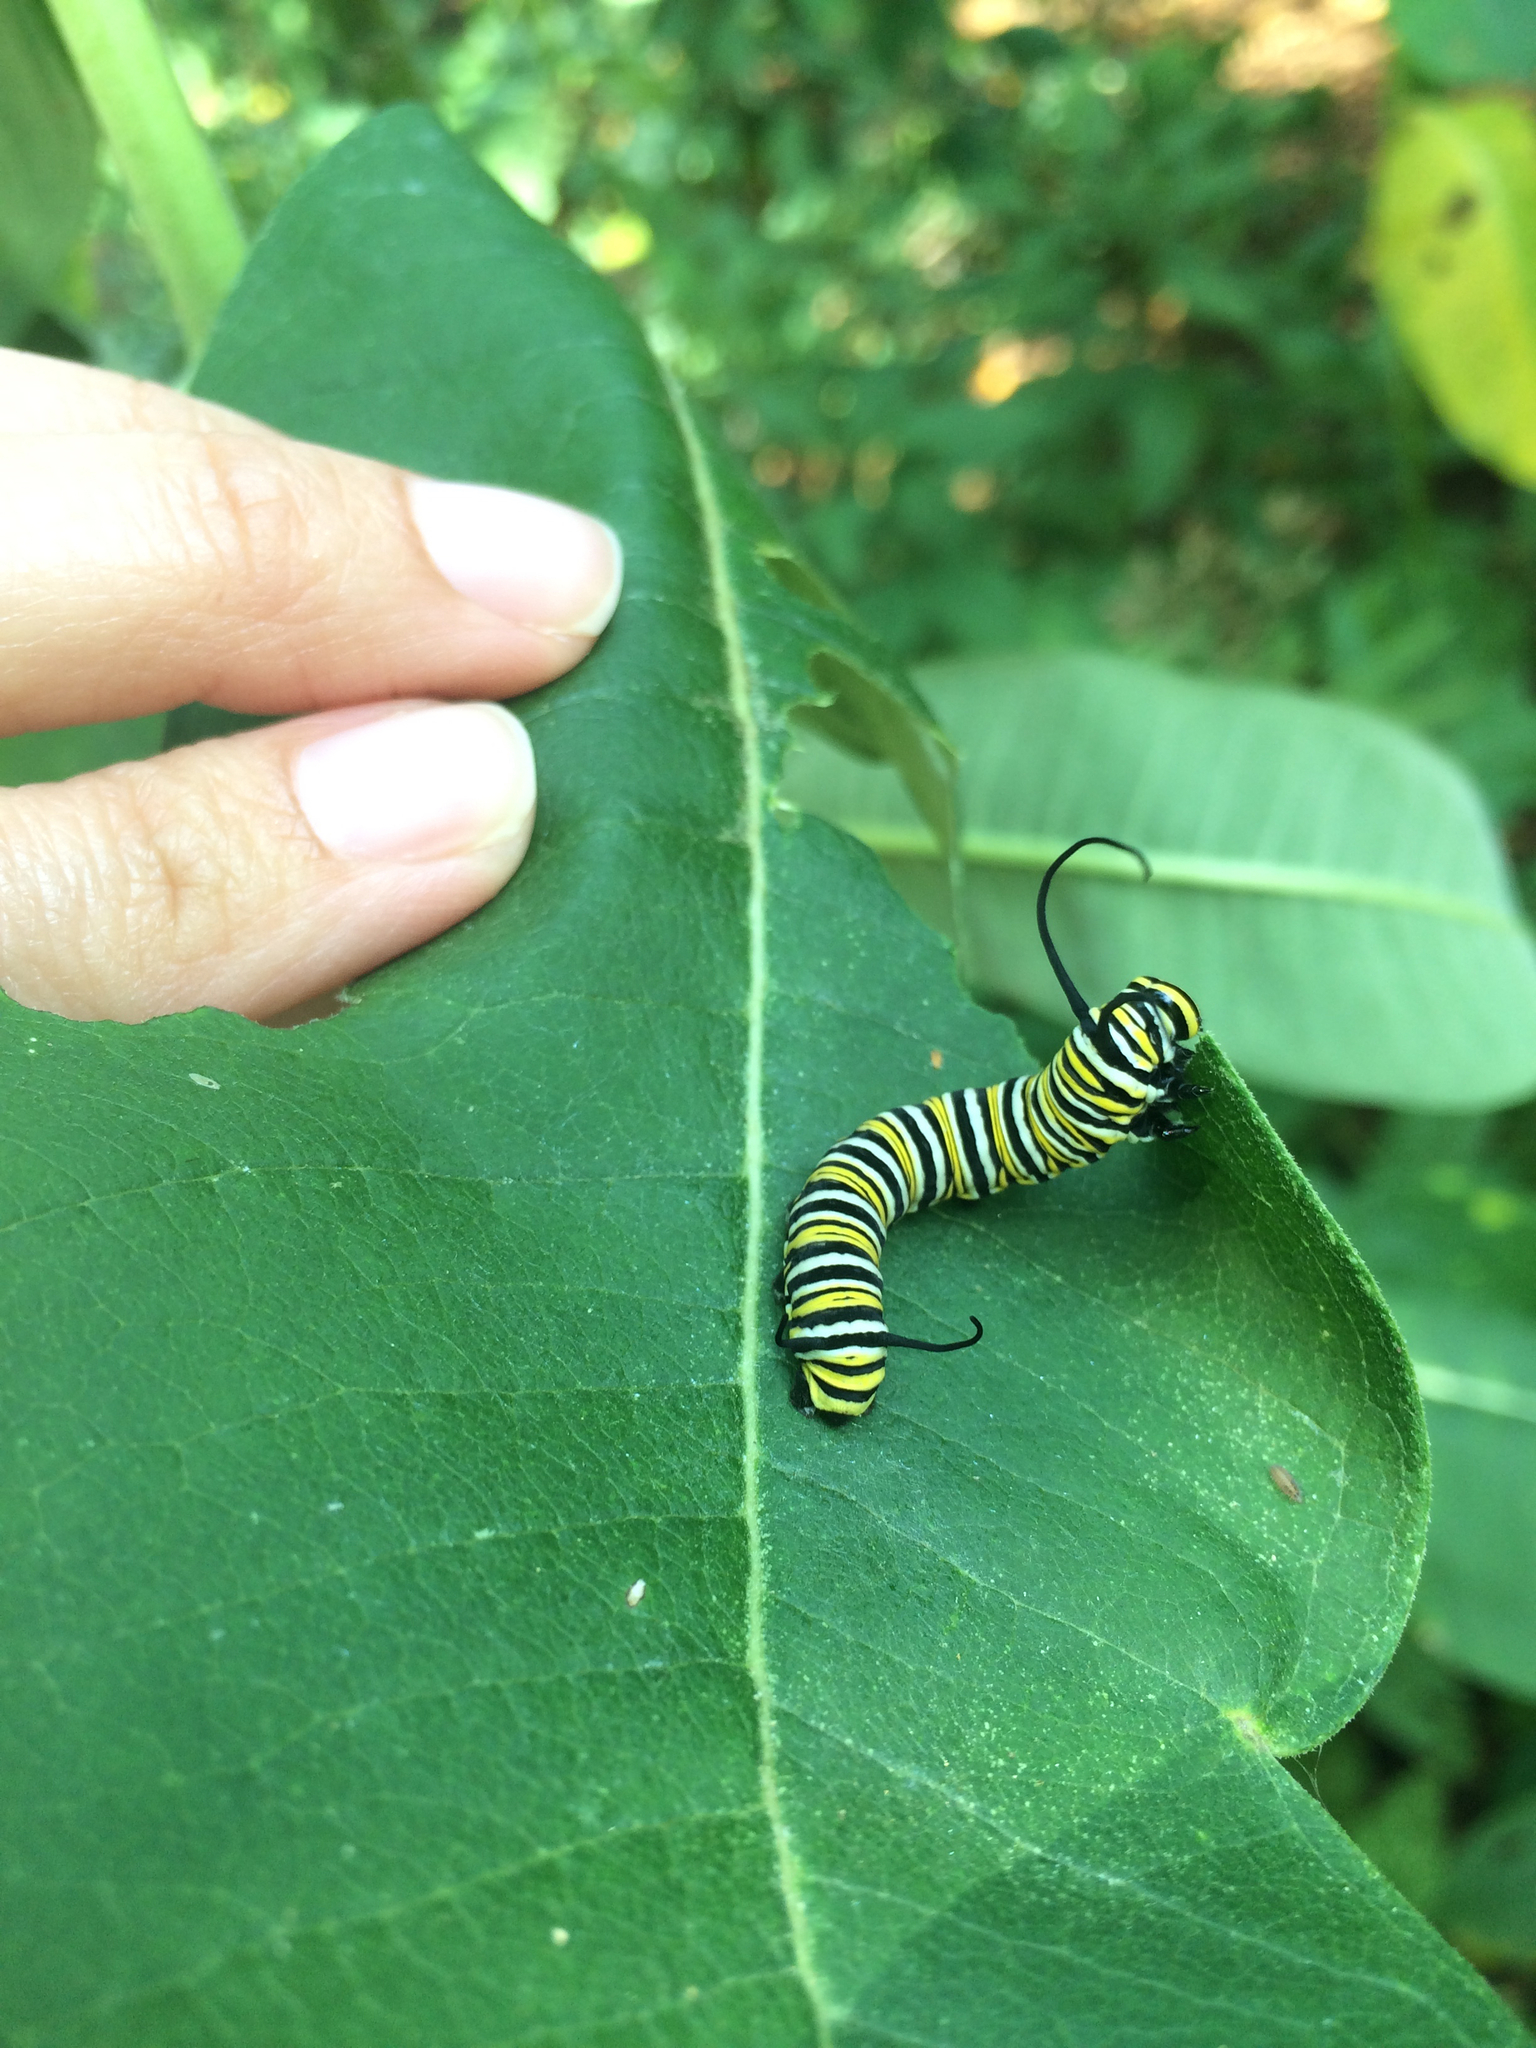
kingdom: Animalia
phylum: Arthropoda
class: Insecta
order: Lepidoptera
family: Nymphalidae
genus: Danaus
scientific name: Danaus plexippus
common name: Monarch
